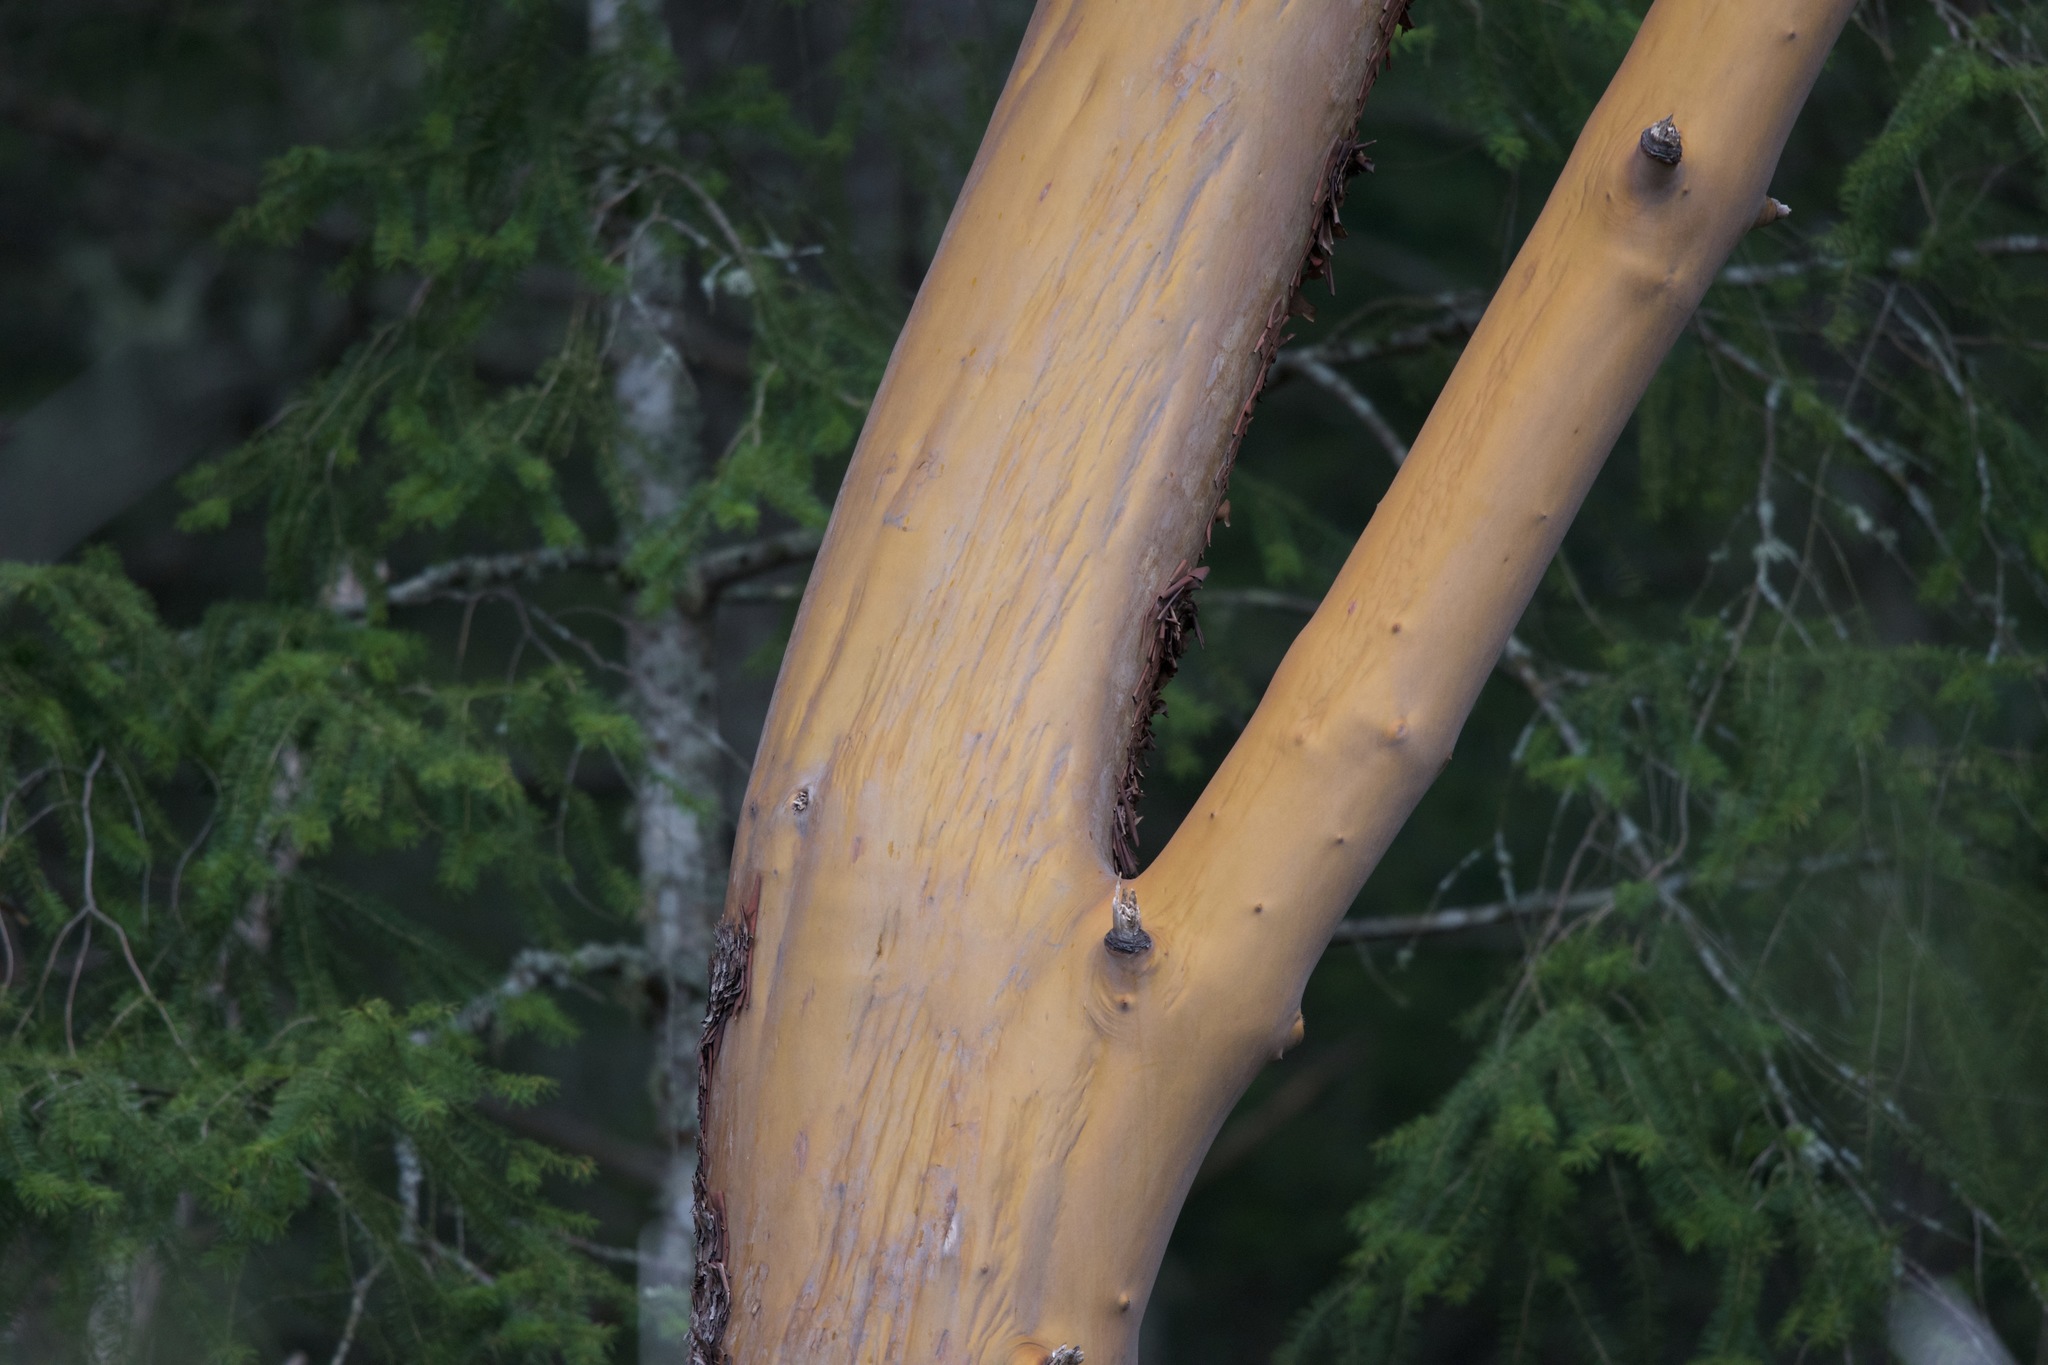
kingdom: Plantae
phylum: Tracheophyta
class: Magnoliopsida
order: Ericales
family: Ericaceae
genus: Arbutus
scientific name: Arbutus menziesii
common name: Pacific madrone
